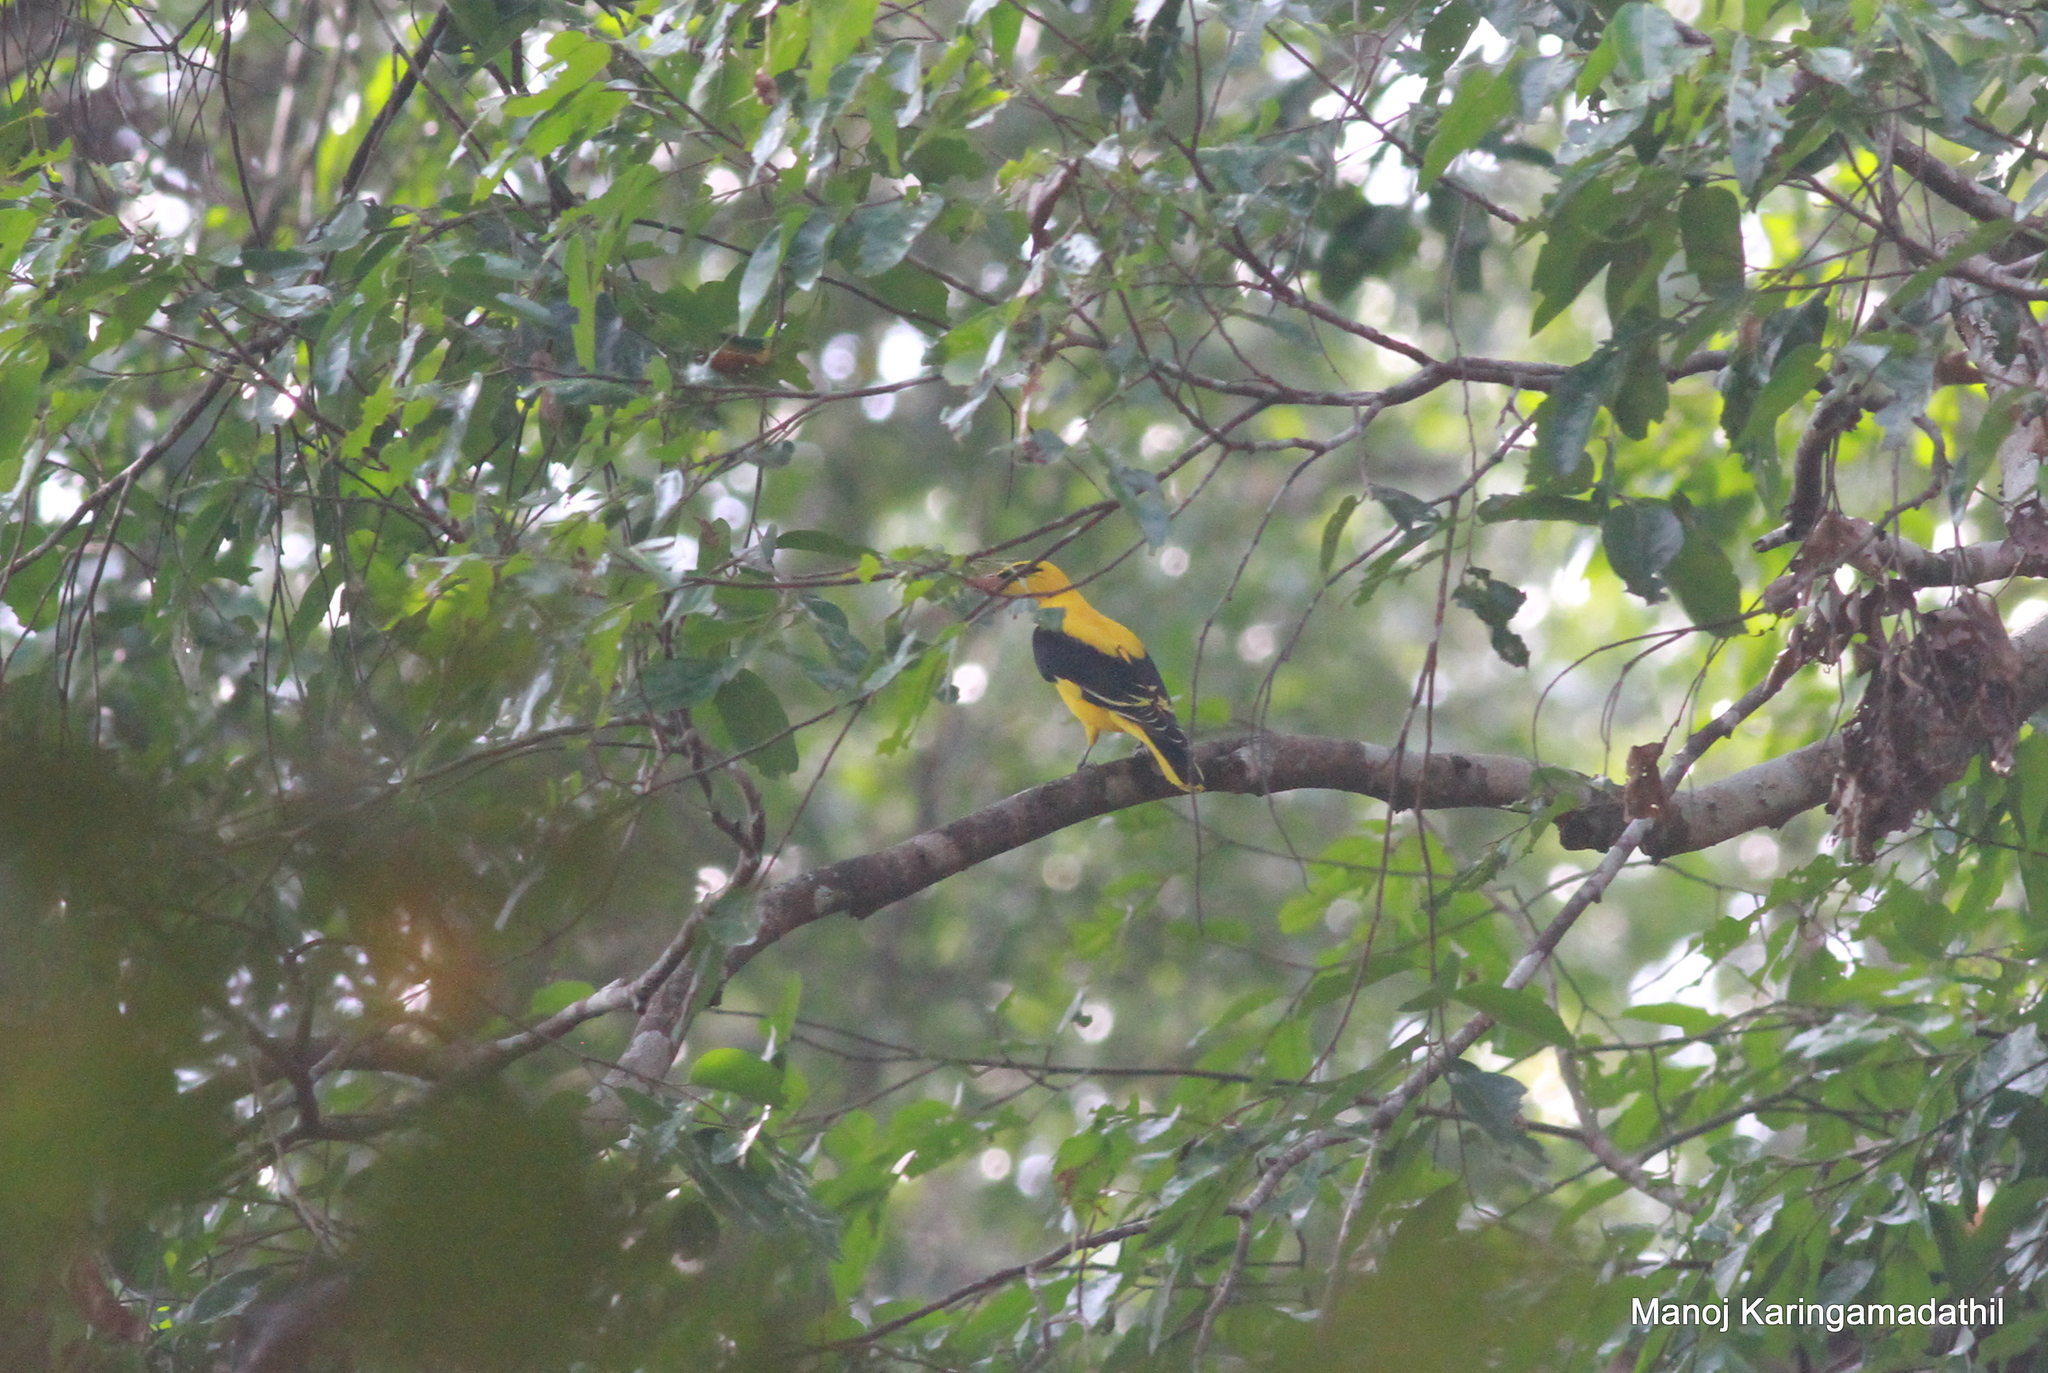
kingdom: Animalia
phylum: Chordata
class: Aves
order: Passeriformes
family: Oriolidae
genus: Oriolus
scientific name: Oriolus kundoo
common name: Indian golden oriole
